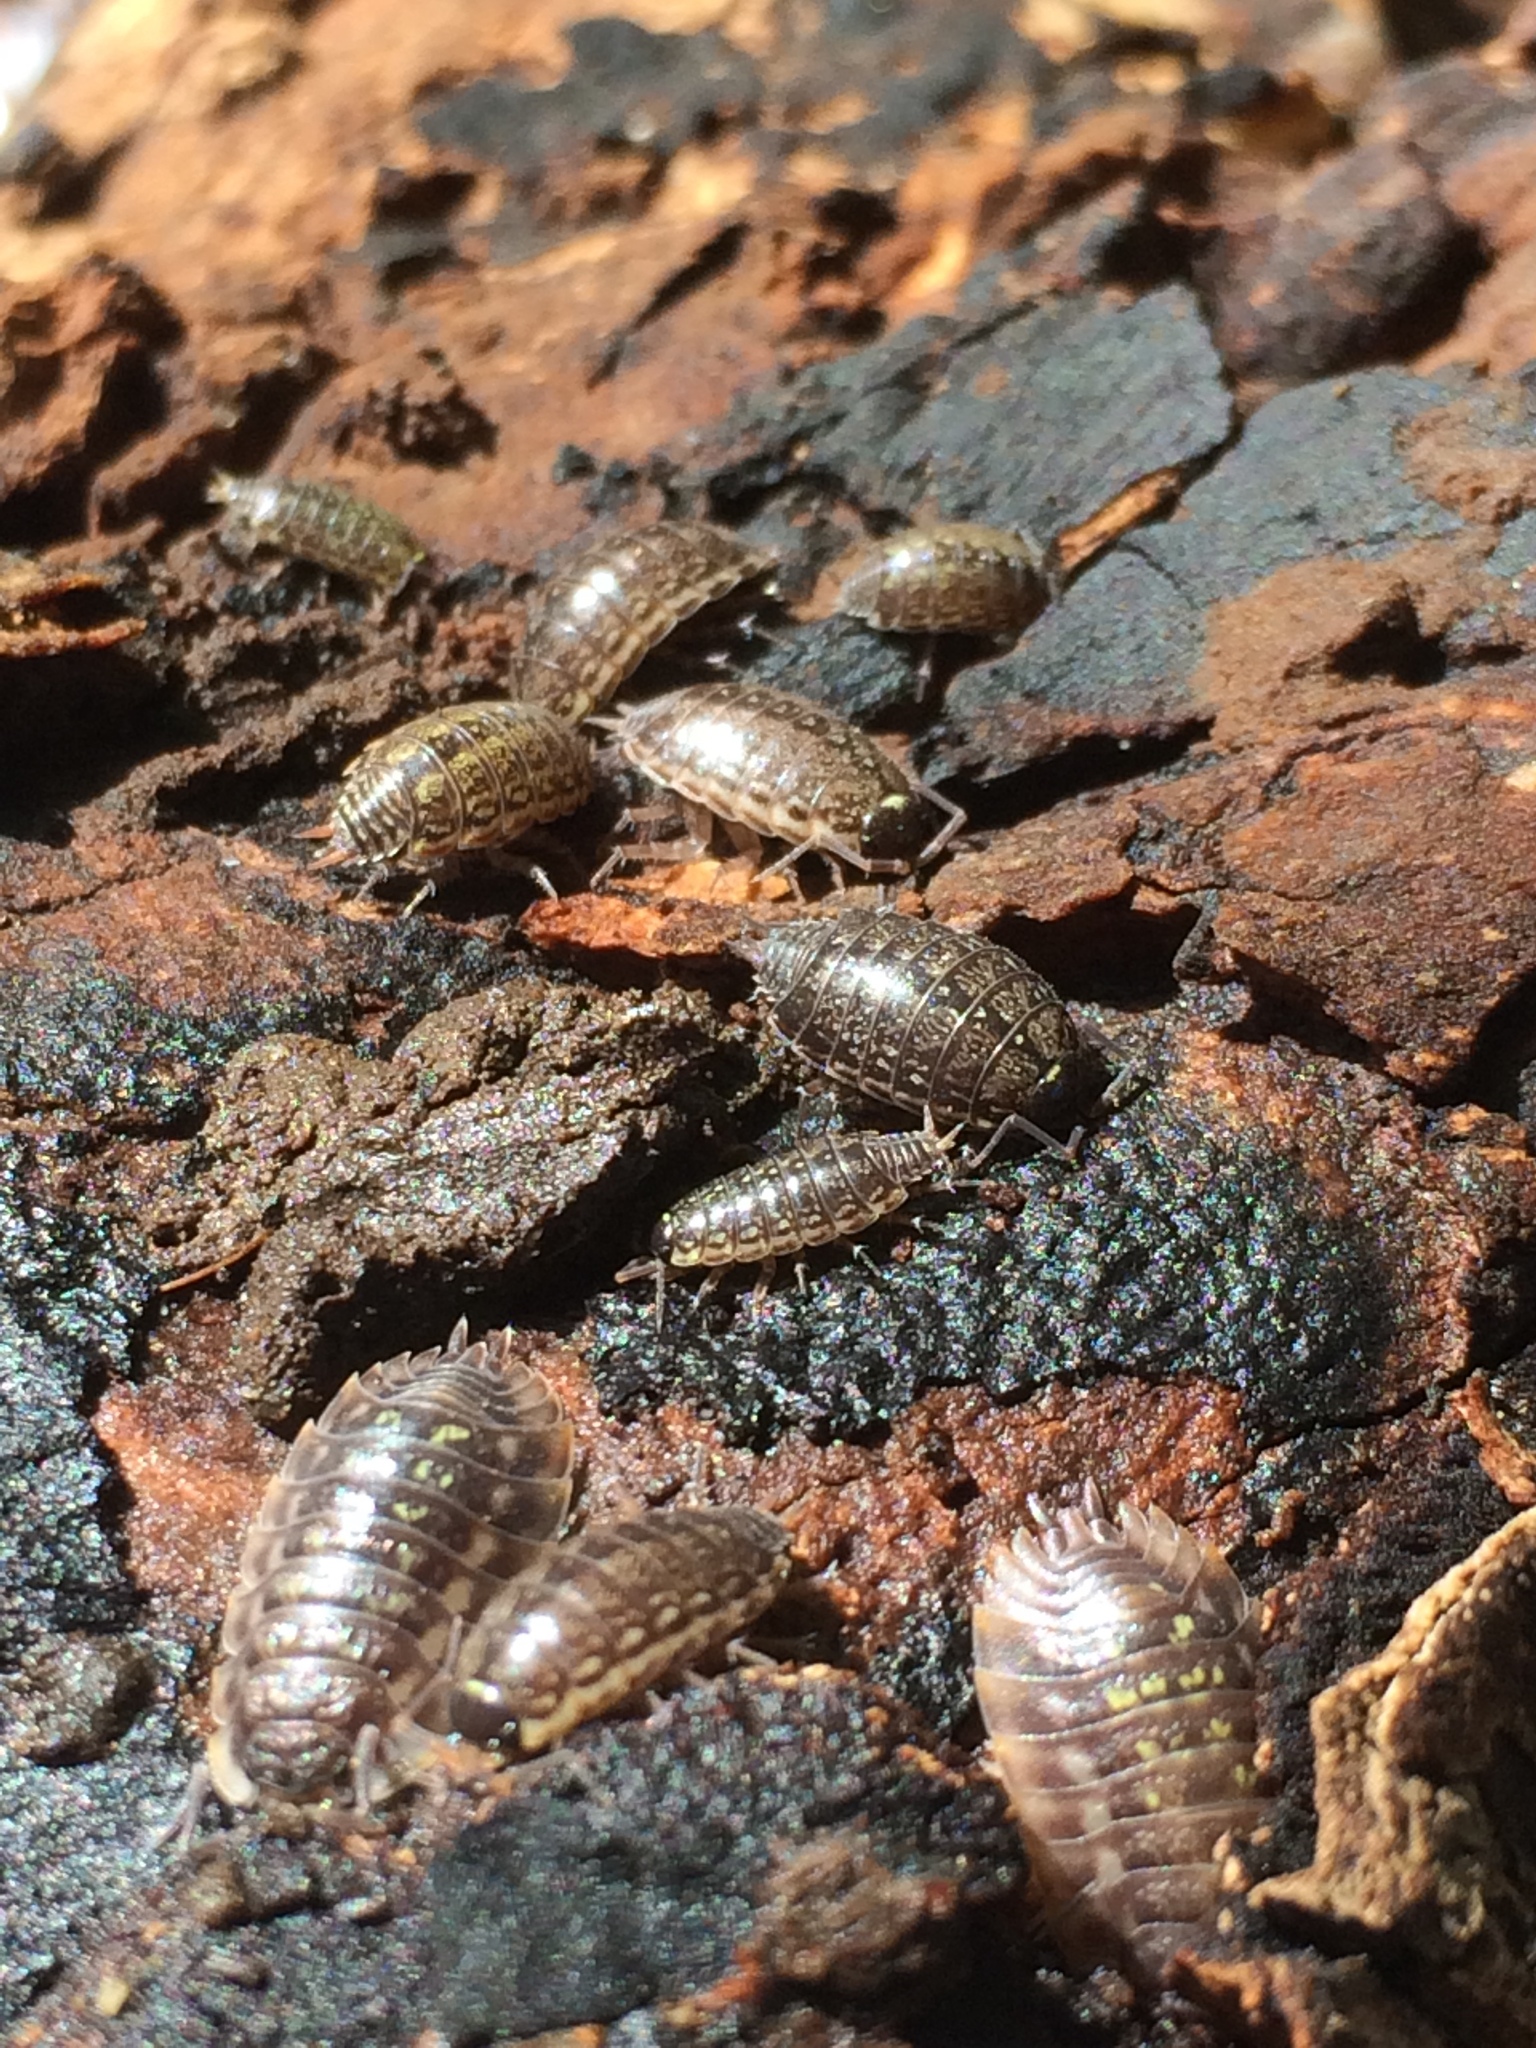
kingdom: Animalia
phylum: Arthropoda
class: Malacostraca
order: Isopoda
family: Philosciidae
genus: Philoscia
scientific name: Philoscia muscorum
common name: Common striped woodlouse
